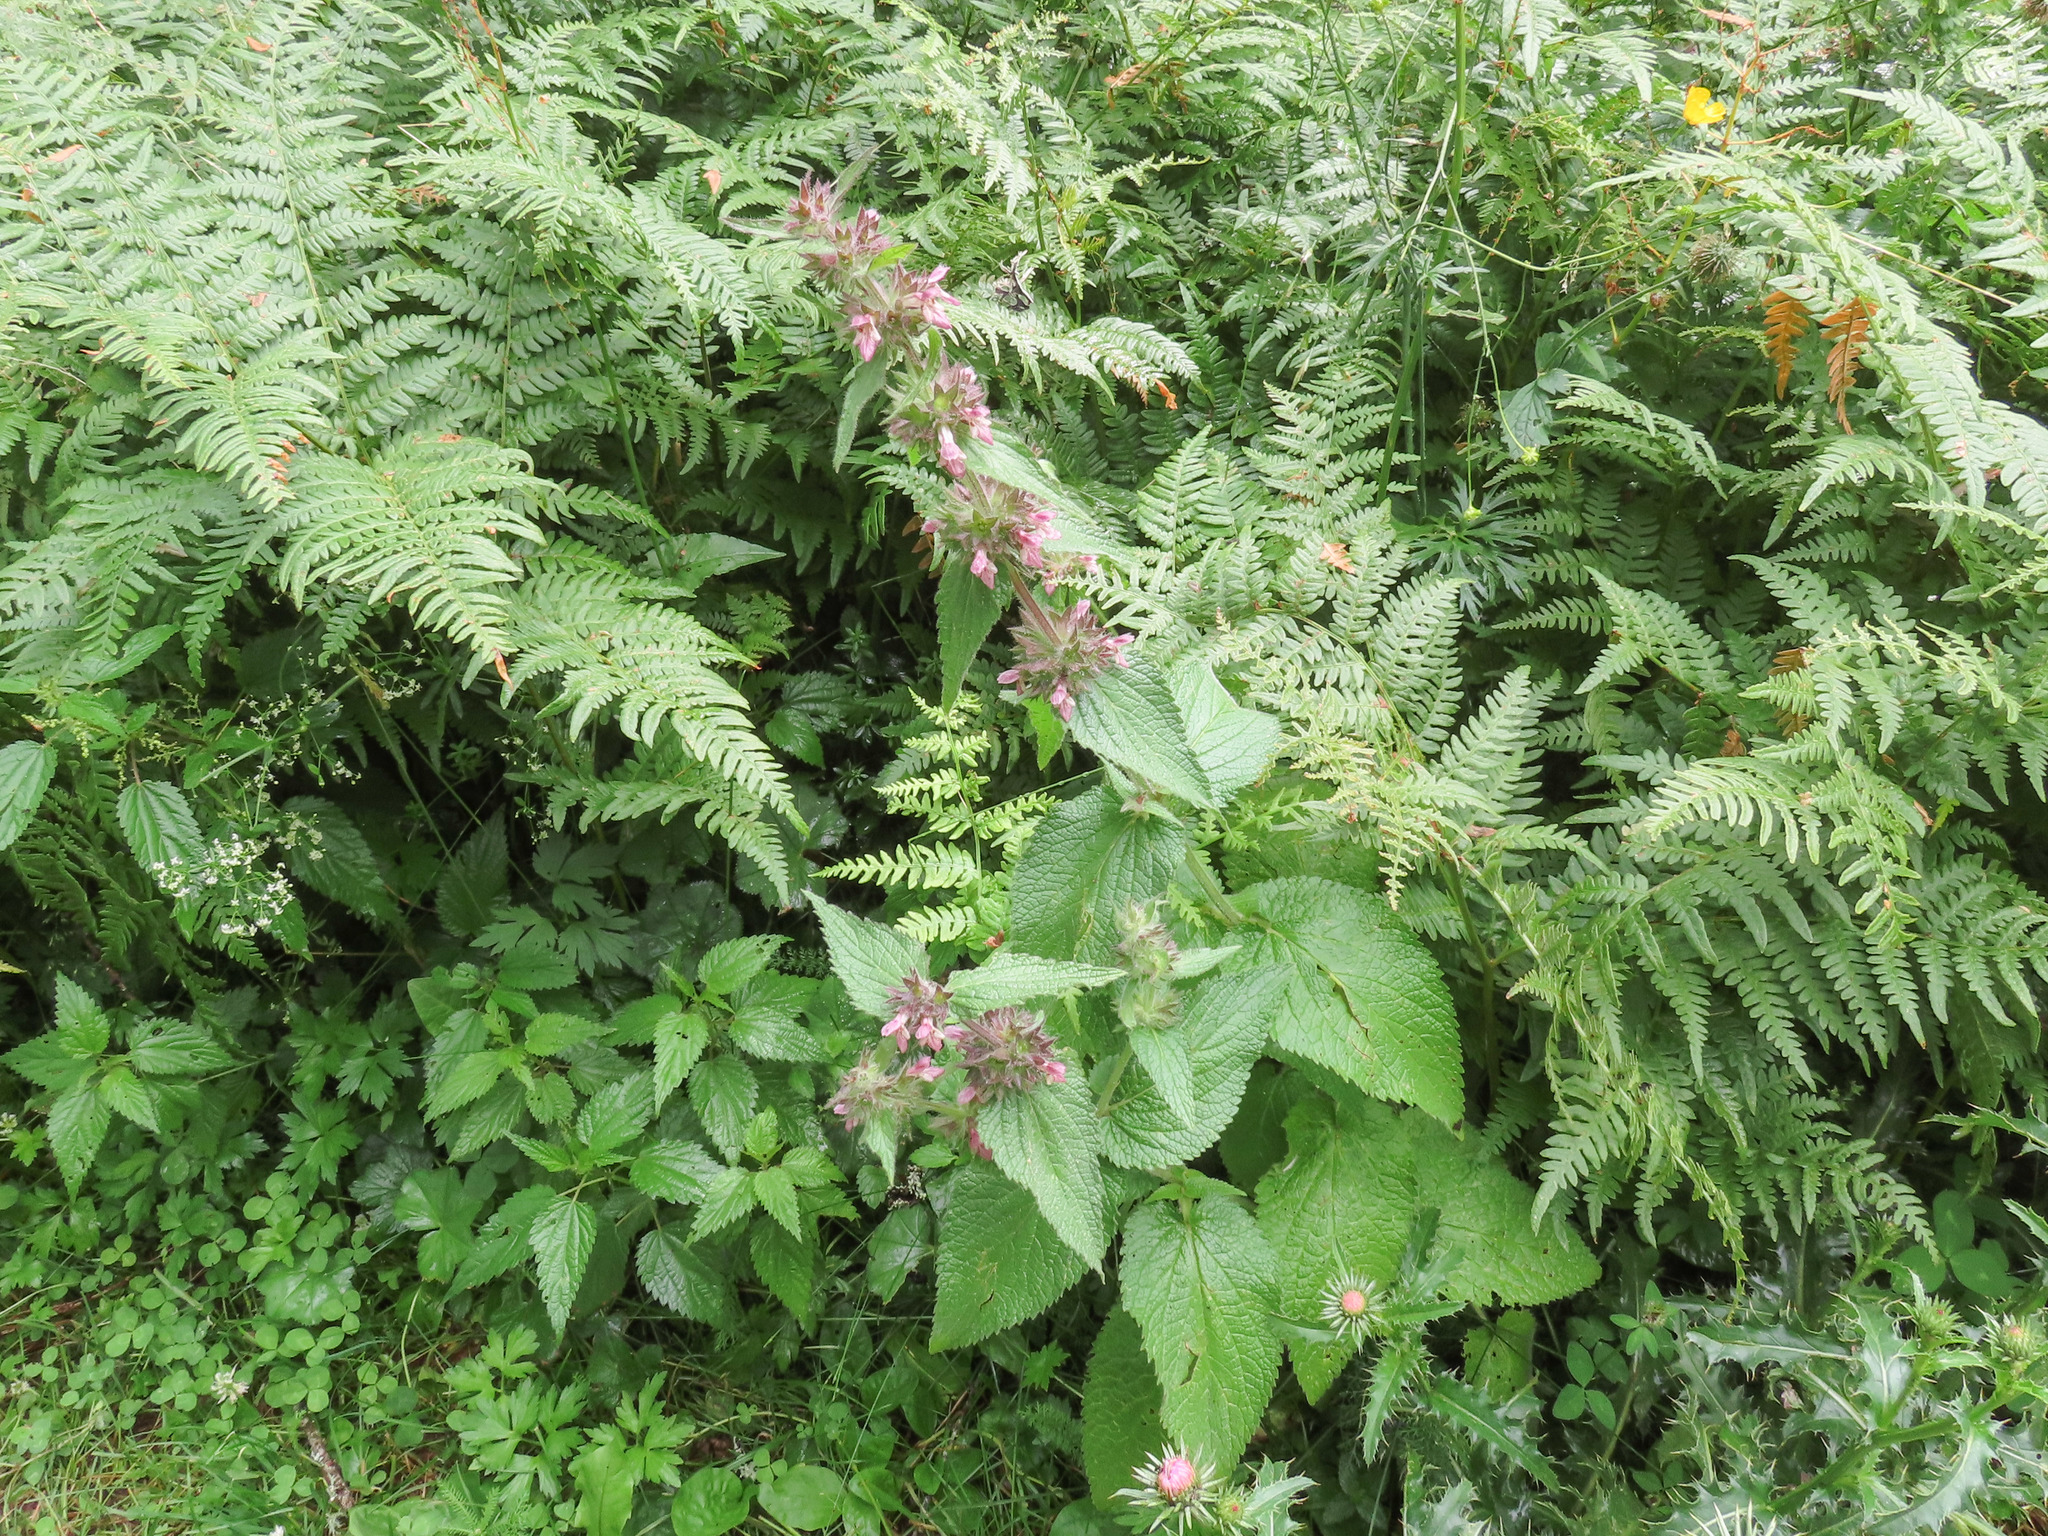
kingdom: Plantae
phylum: Tracheophyta
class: Magnoliopsida
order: Lamiales
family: Lamiaceae
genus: Stachys
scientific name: Stachys alpina
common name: Limestone woundwort
